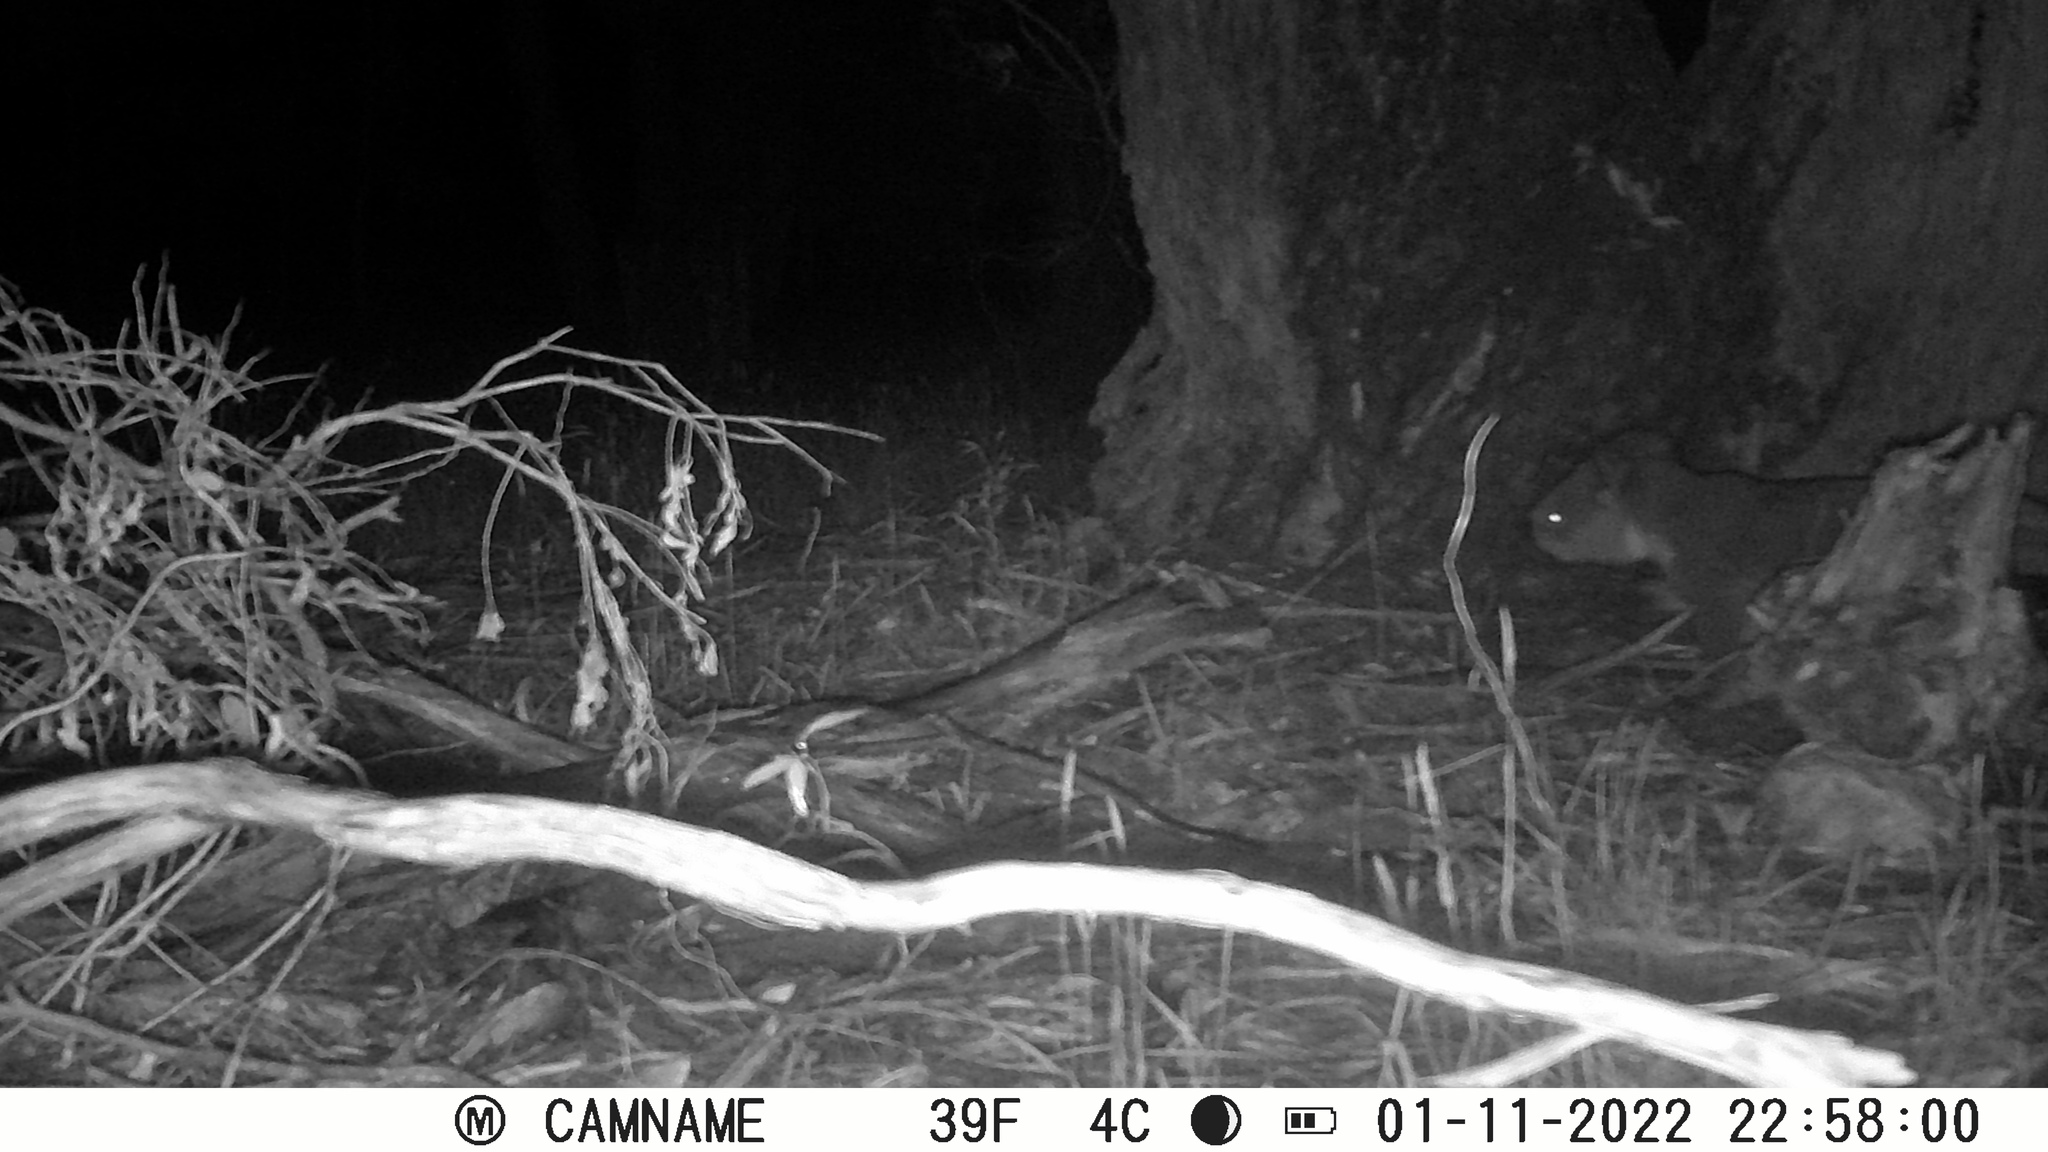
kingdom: Animalia
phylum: Chordata
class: Mammalia
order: Diprotodontia
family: Phascolarctidae
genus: Phascolarctos
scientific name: Phascolarctos cinereus
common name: Koala
